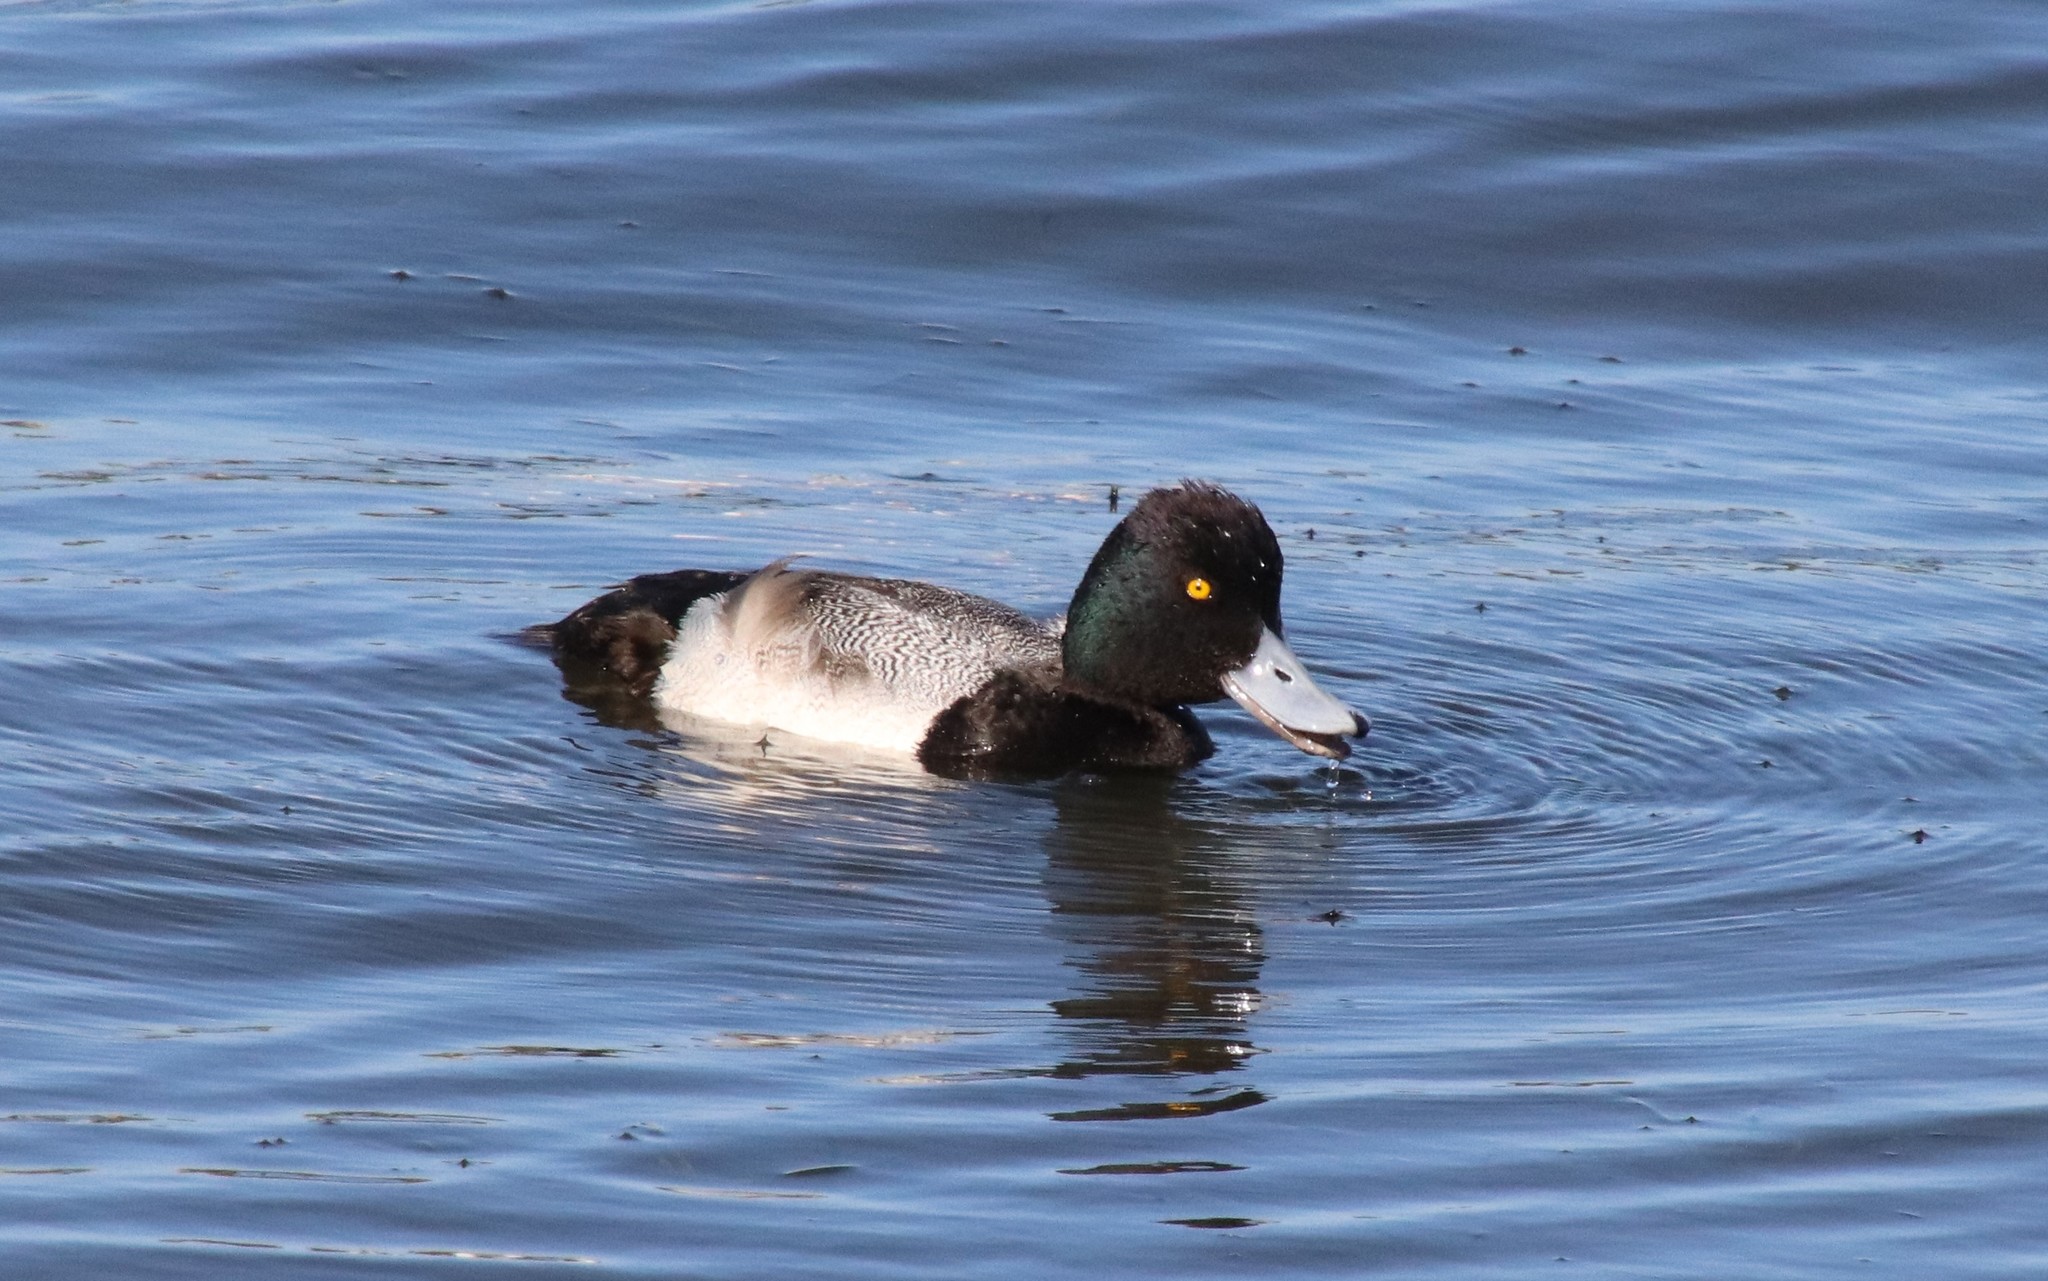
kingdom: Animalia
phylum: Chordata
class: Aves
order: Anseriformes
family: Anatidae
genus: Aythya
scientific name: Aythya affinis
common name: Lesser scaup
